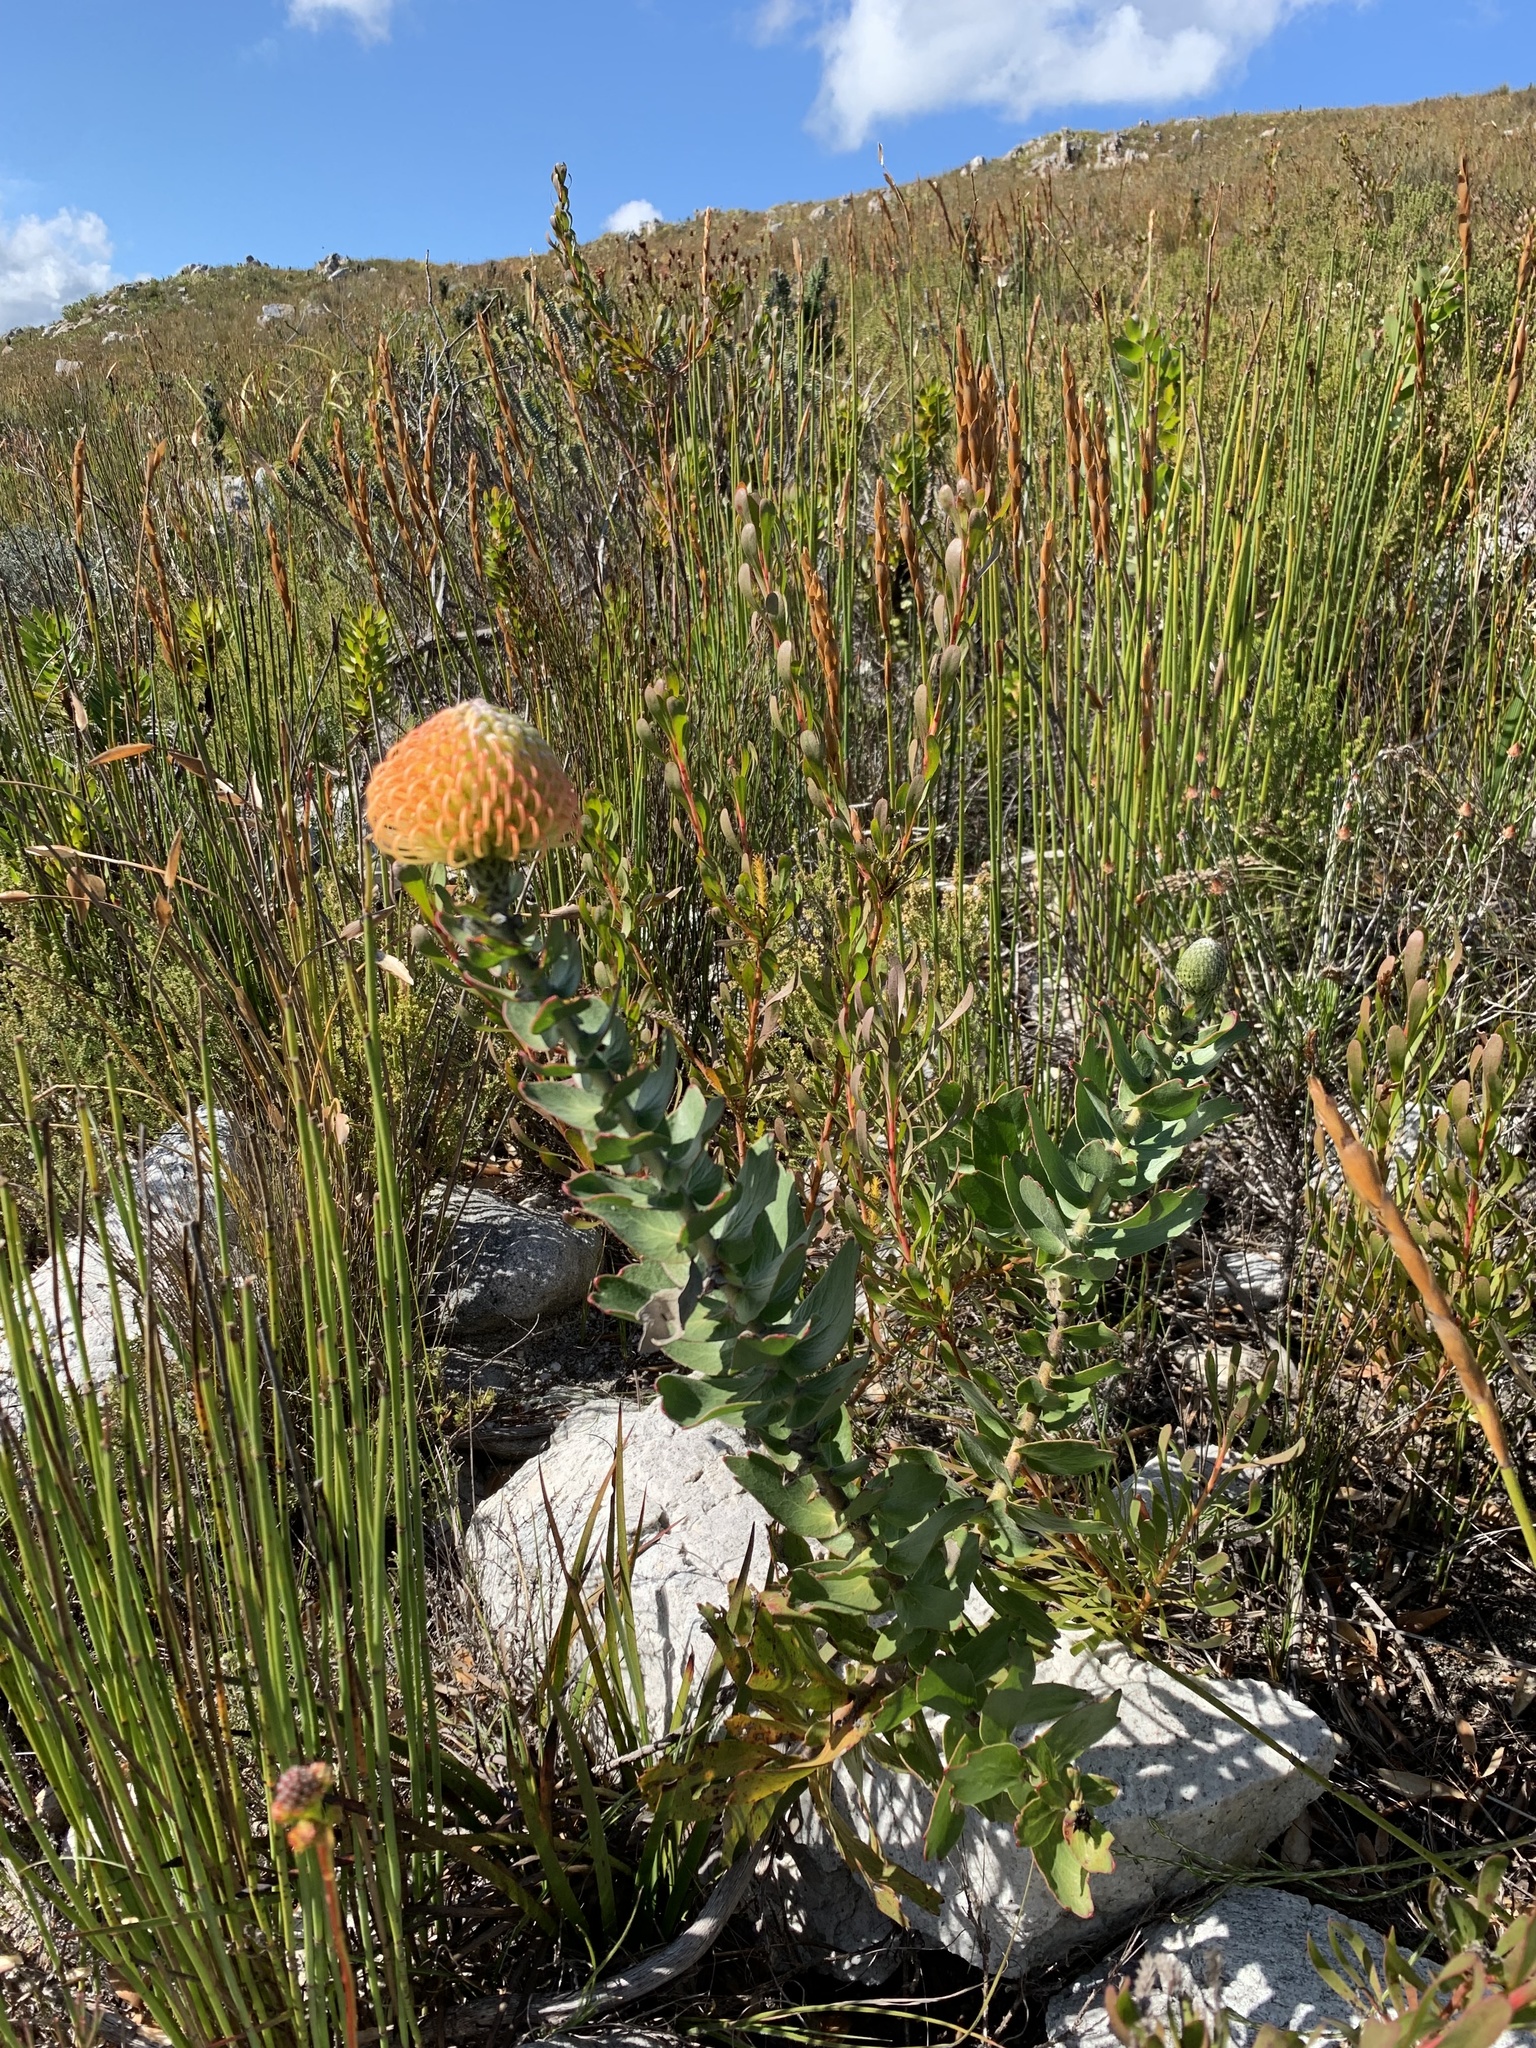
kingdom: Plantae
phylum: Tracheophyta
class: Magnoliopsida
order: Proteales
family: Proteaceae
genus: Leucospermum
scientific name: Leucospermum cordifolium
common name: Red pincushion-protea
